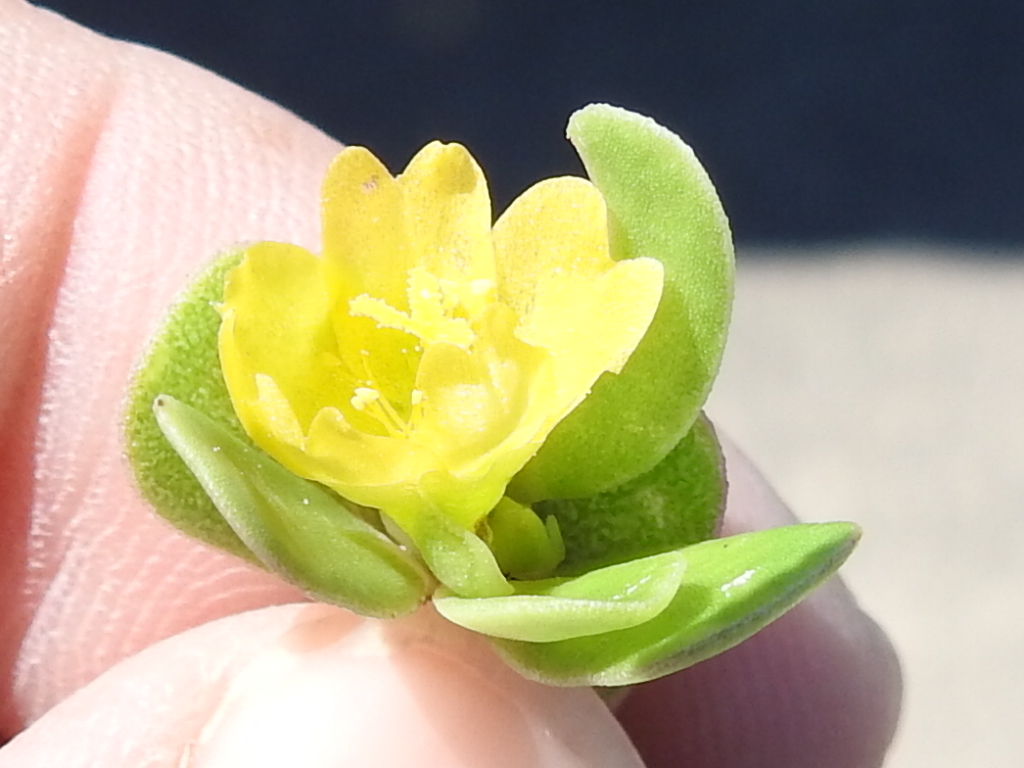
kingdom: Plantae
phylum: Tracheophyta
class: Magnoliopsida
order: Caryophyllales
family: Portulacaceae
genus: Portulaca
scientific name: Portulaca oleracea
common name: Common purslane
